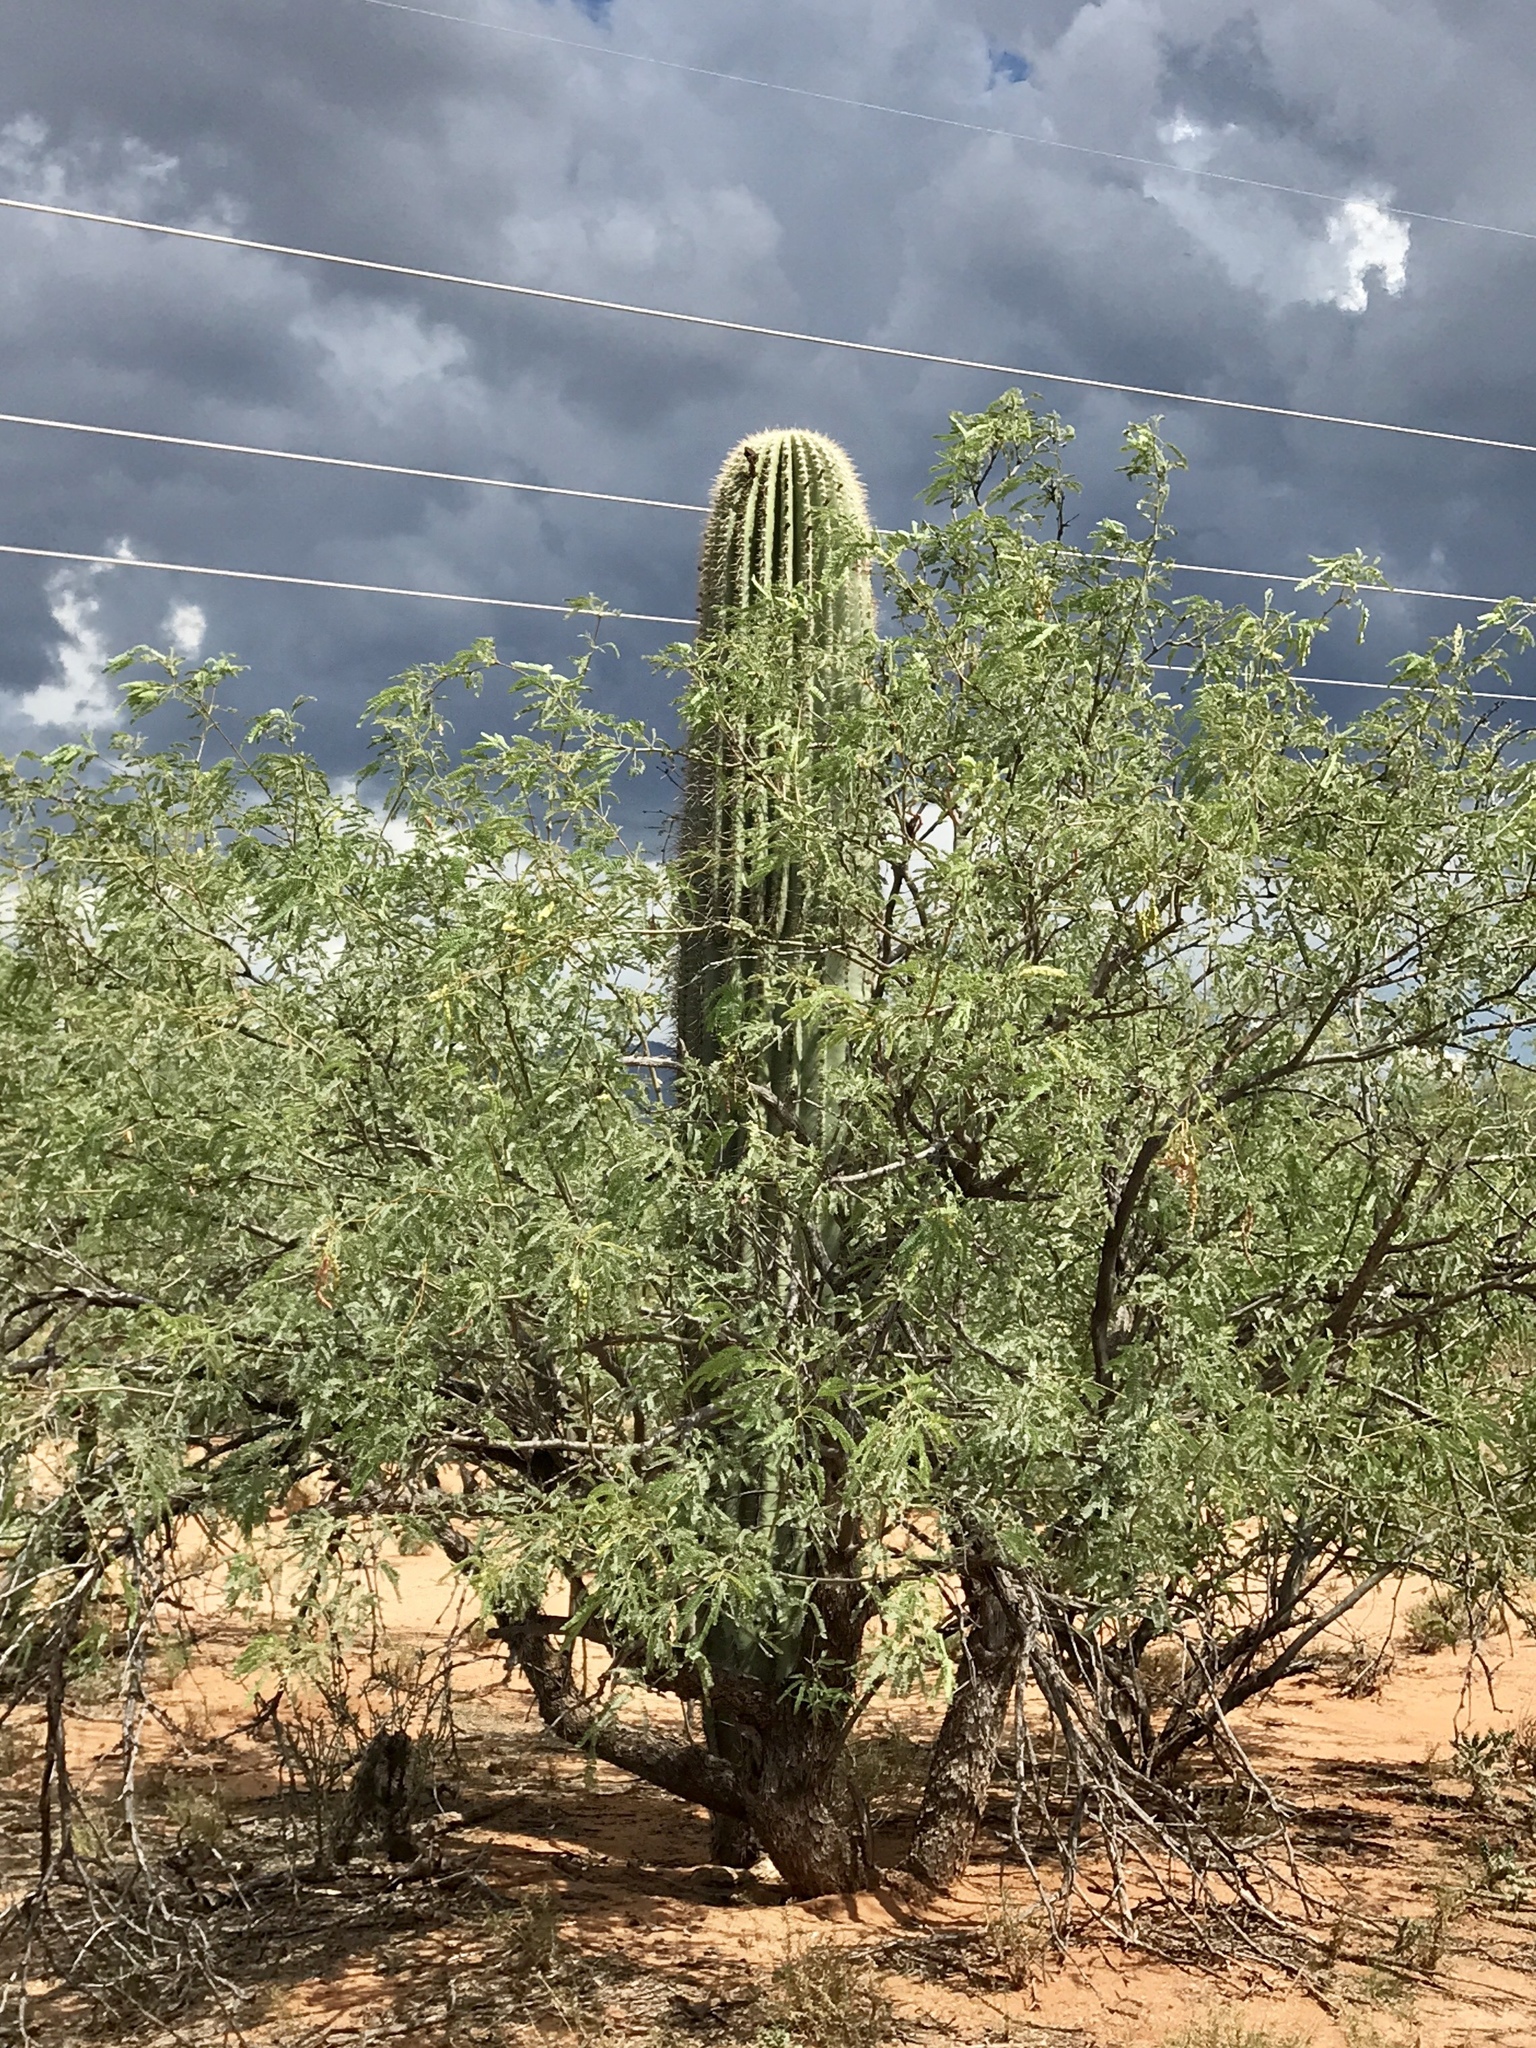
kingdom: Plantae
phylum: Tracheophyta
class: Magnoliopsida
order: Caryophyllales
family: Cactaceae
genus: Carnegiea
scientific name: Carnegiea gigantea
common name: Saguaro
